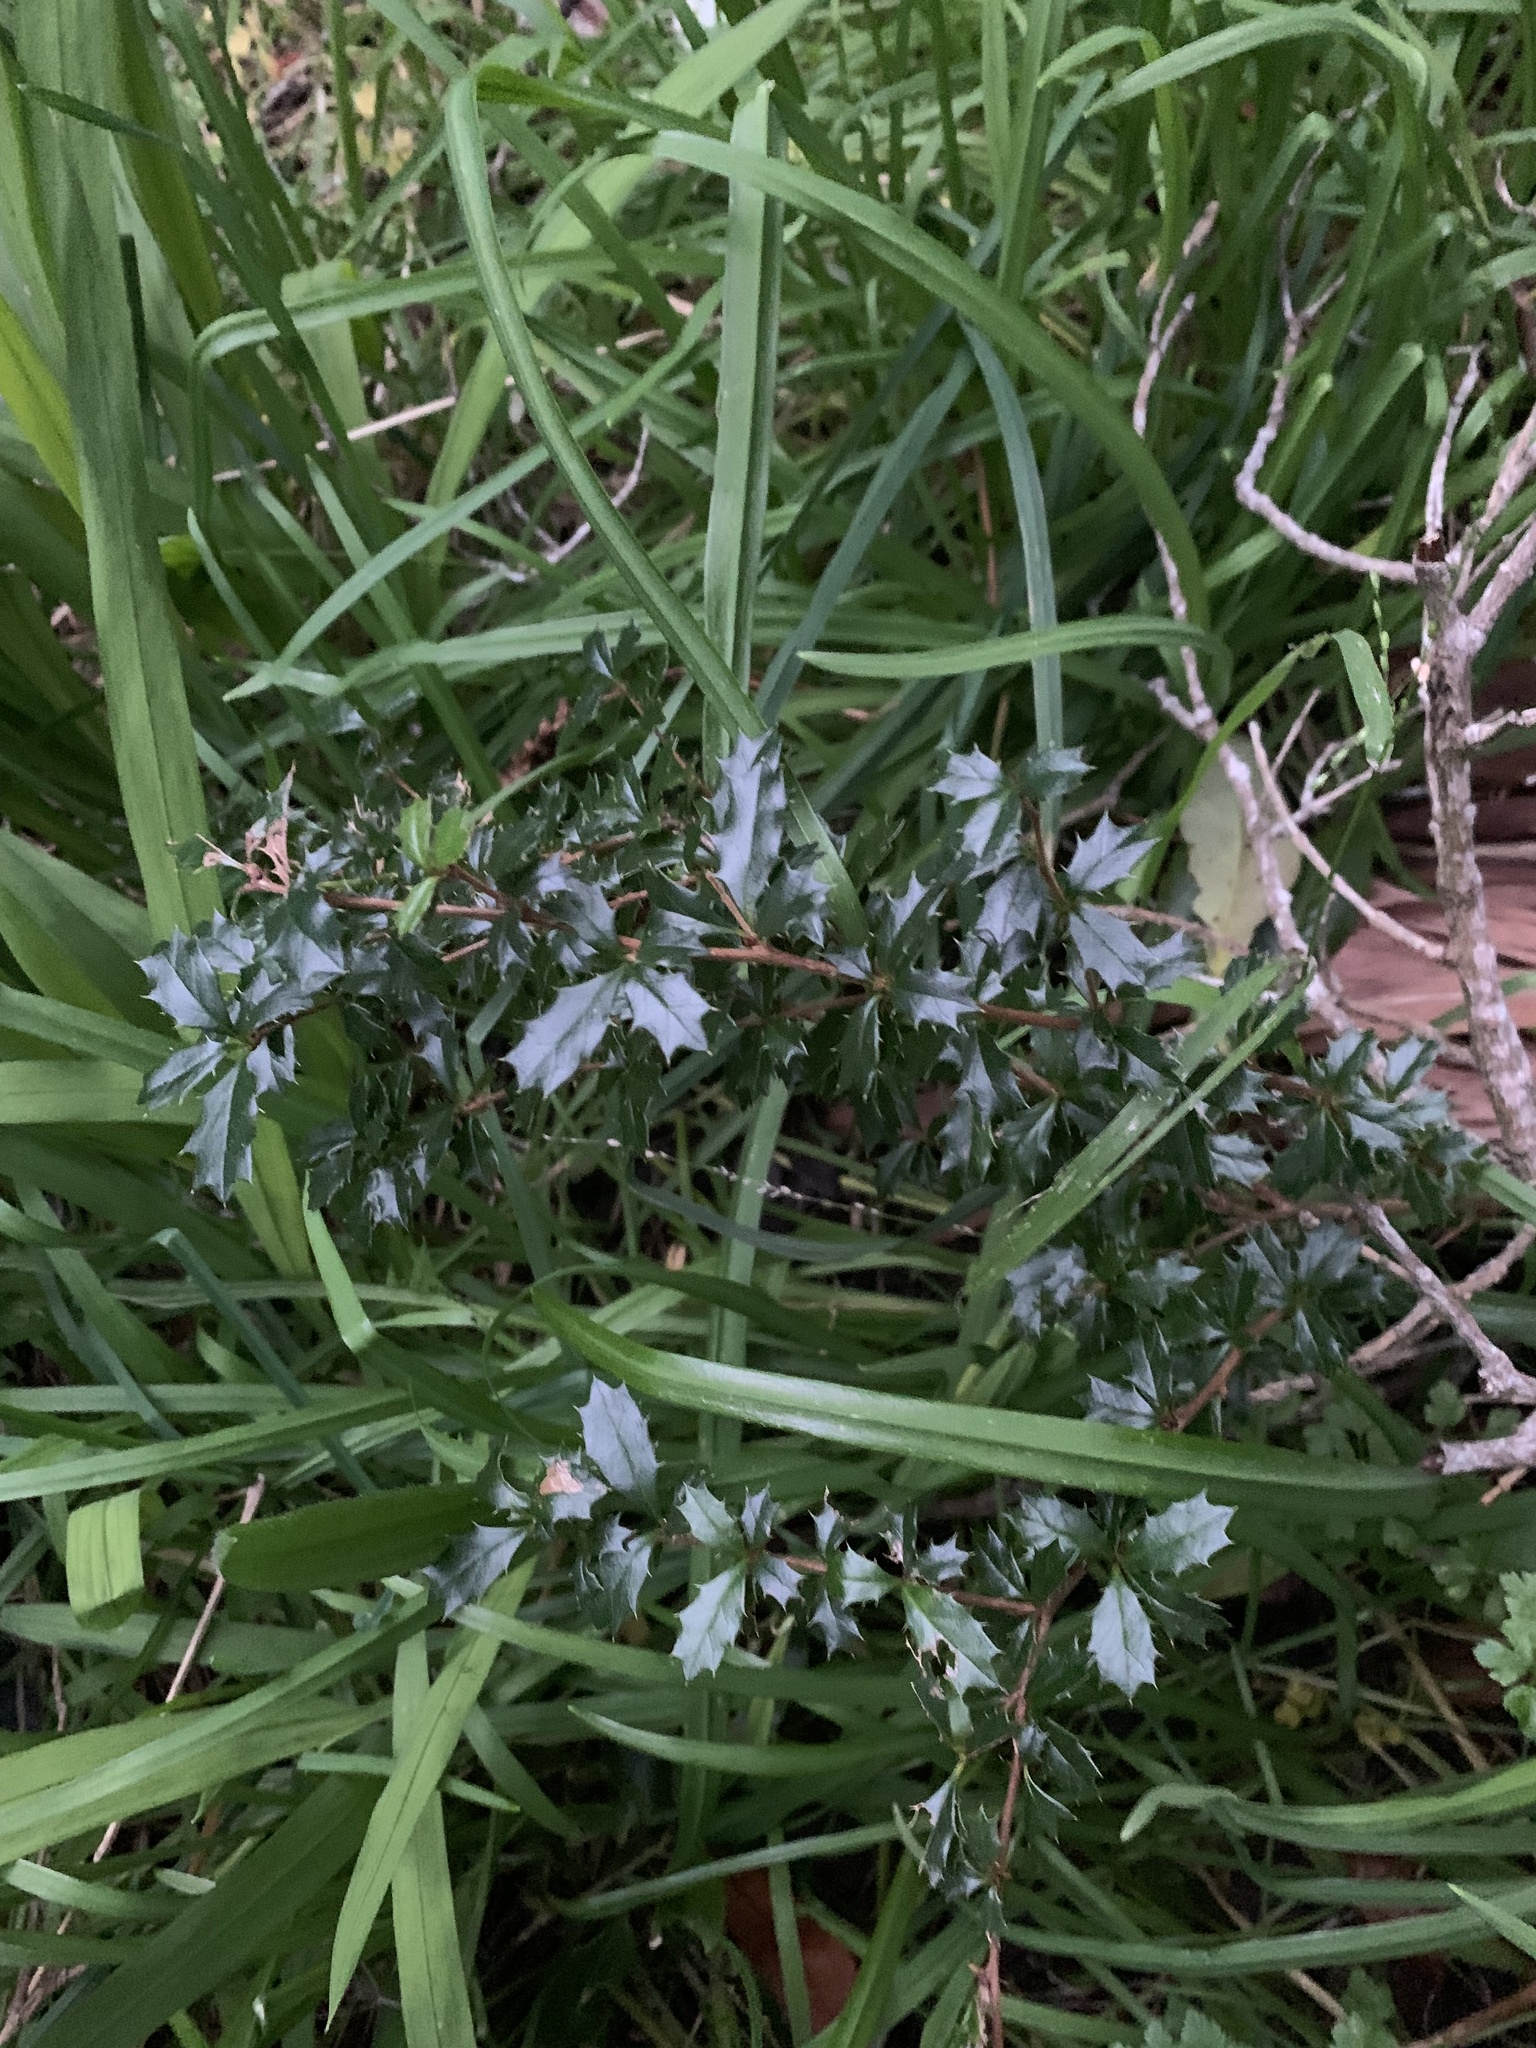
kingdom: Plantae
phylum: Tracheophyta
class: Magnoliopsida
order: Ranunculales
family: Berberidaceae
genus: Berberis
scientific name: Berberis darwinii
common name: Darwin's barberry
